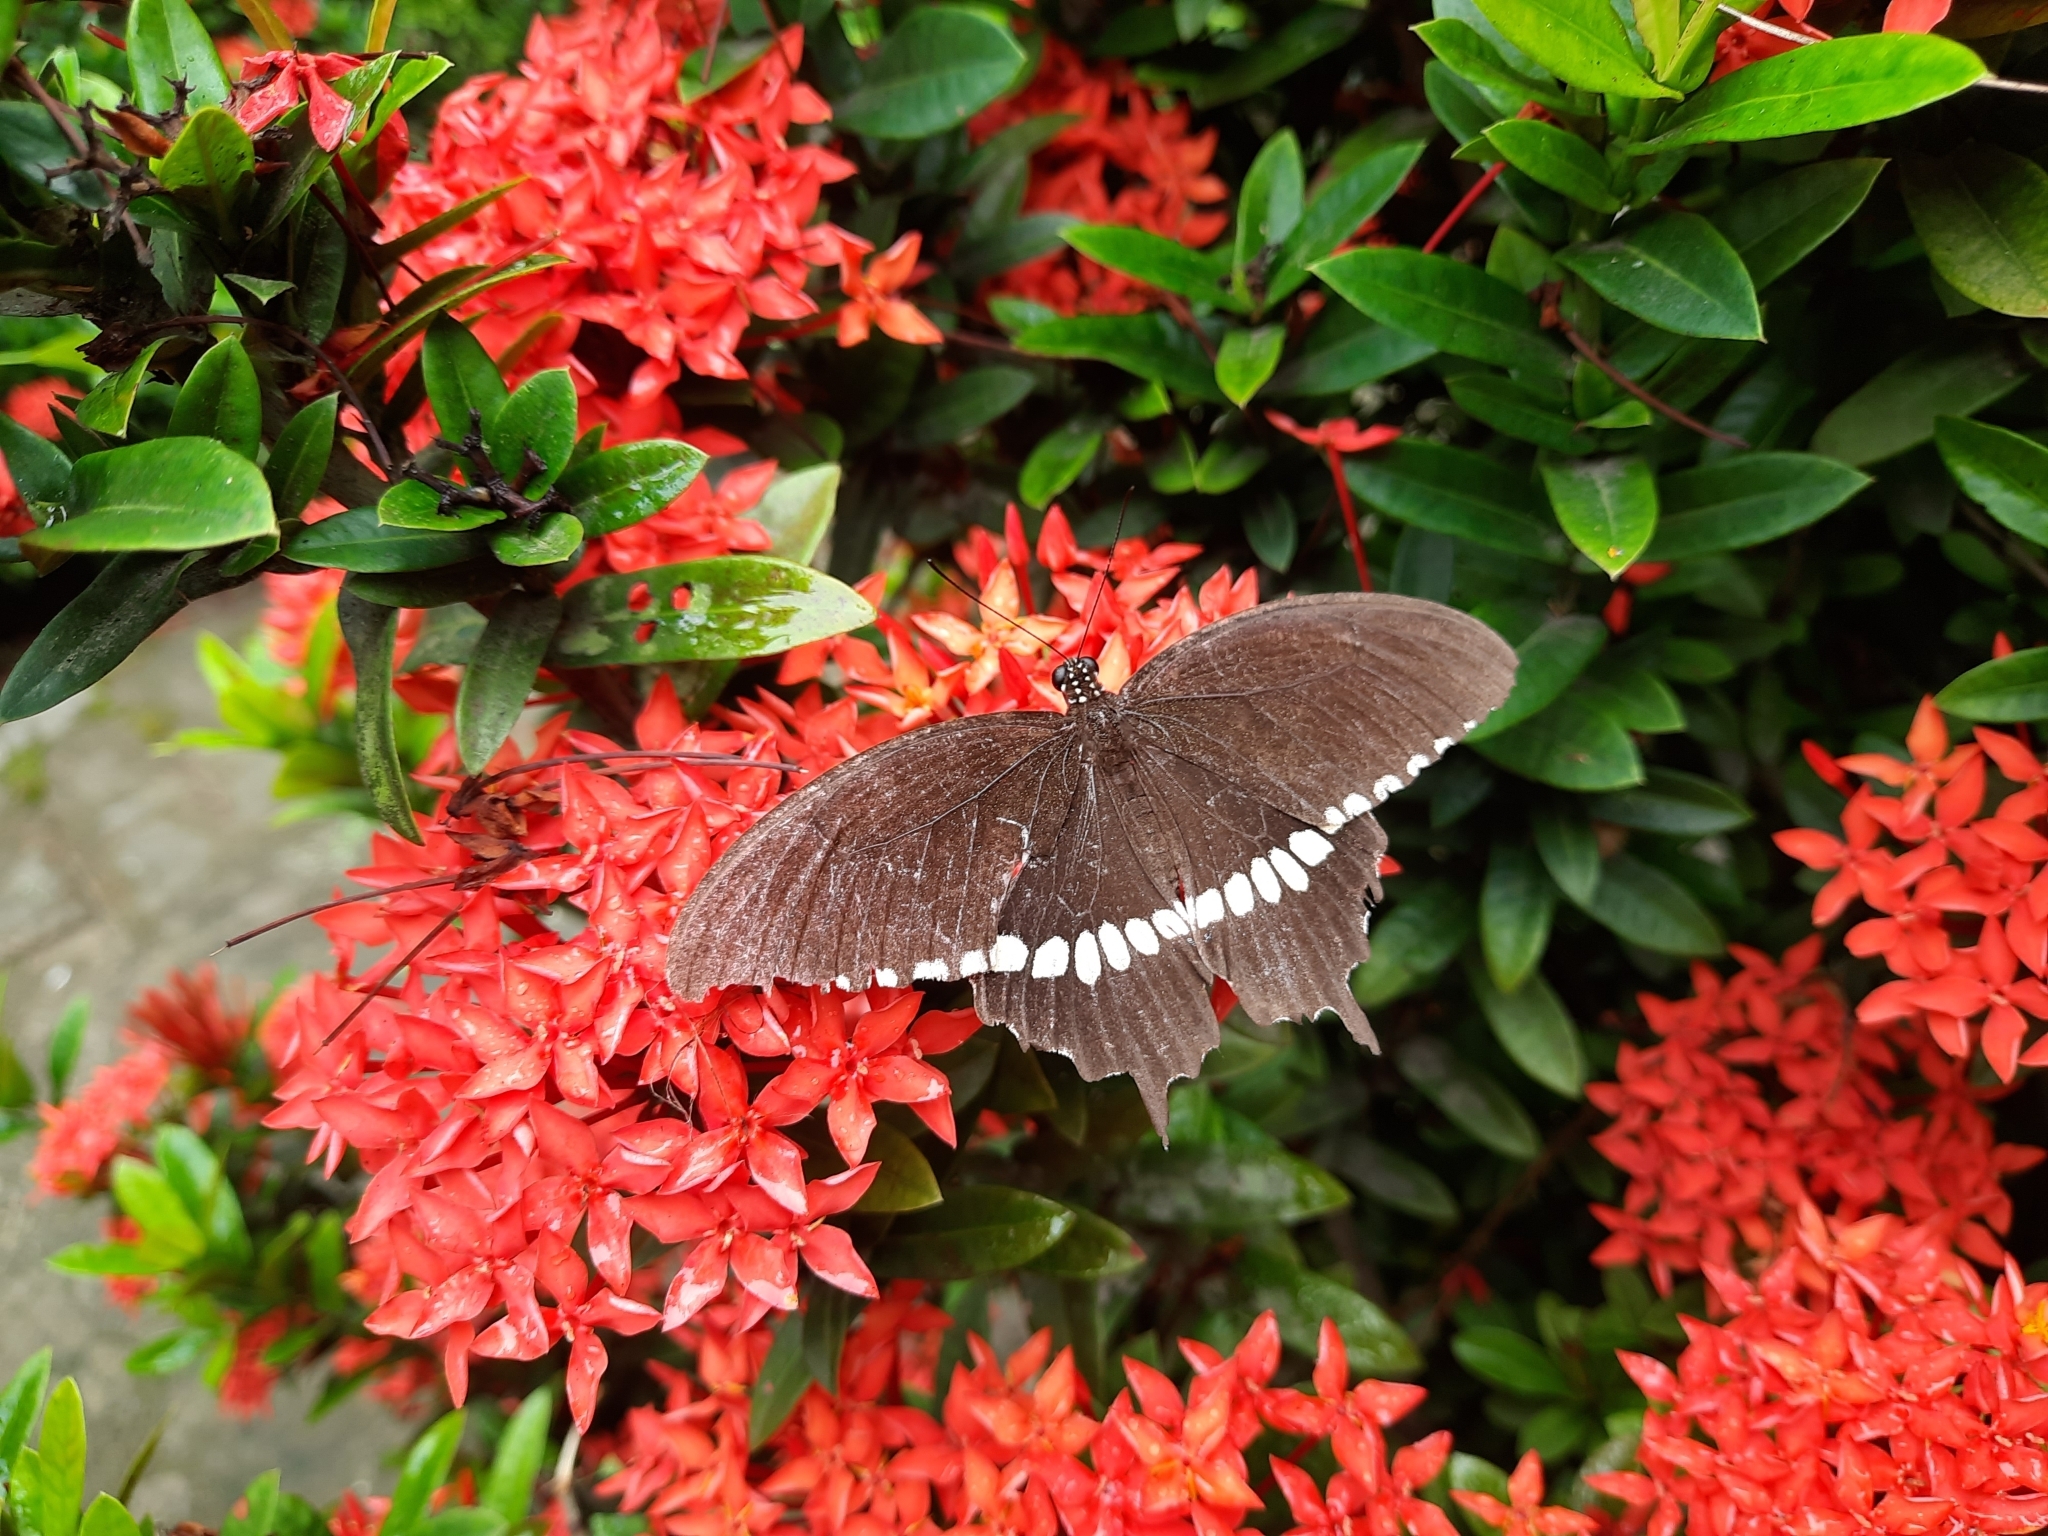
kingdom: Animalia
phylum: Arthropoda
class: Insecta
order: Lepidoptera
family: Papilionidae
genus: Papilio
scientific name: Papilio polytes
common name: Common mormon
